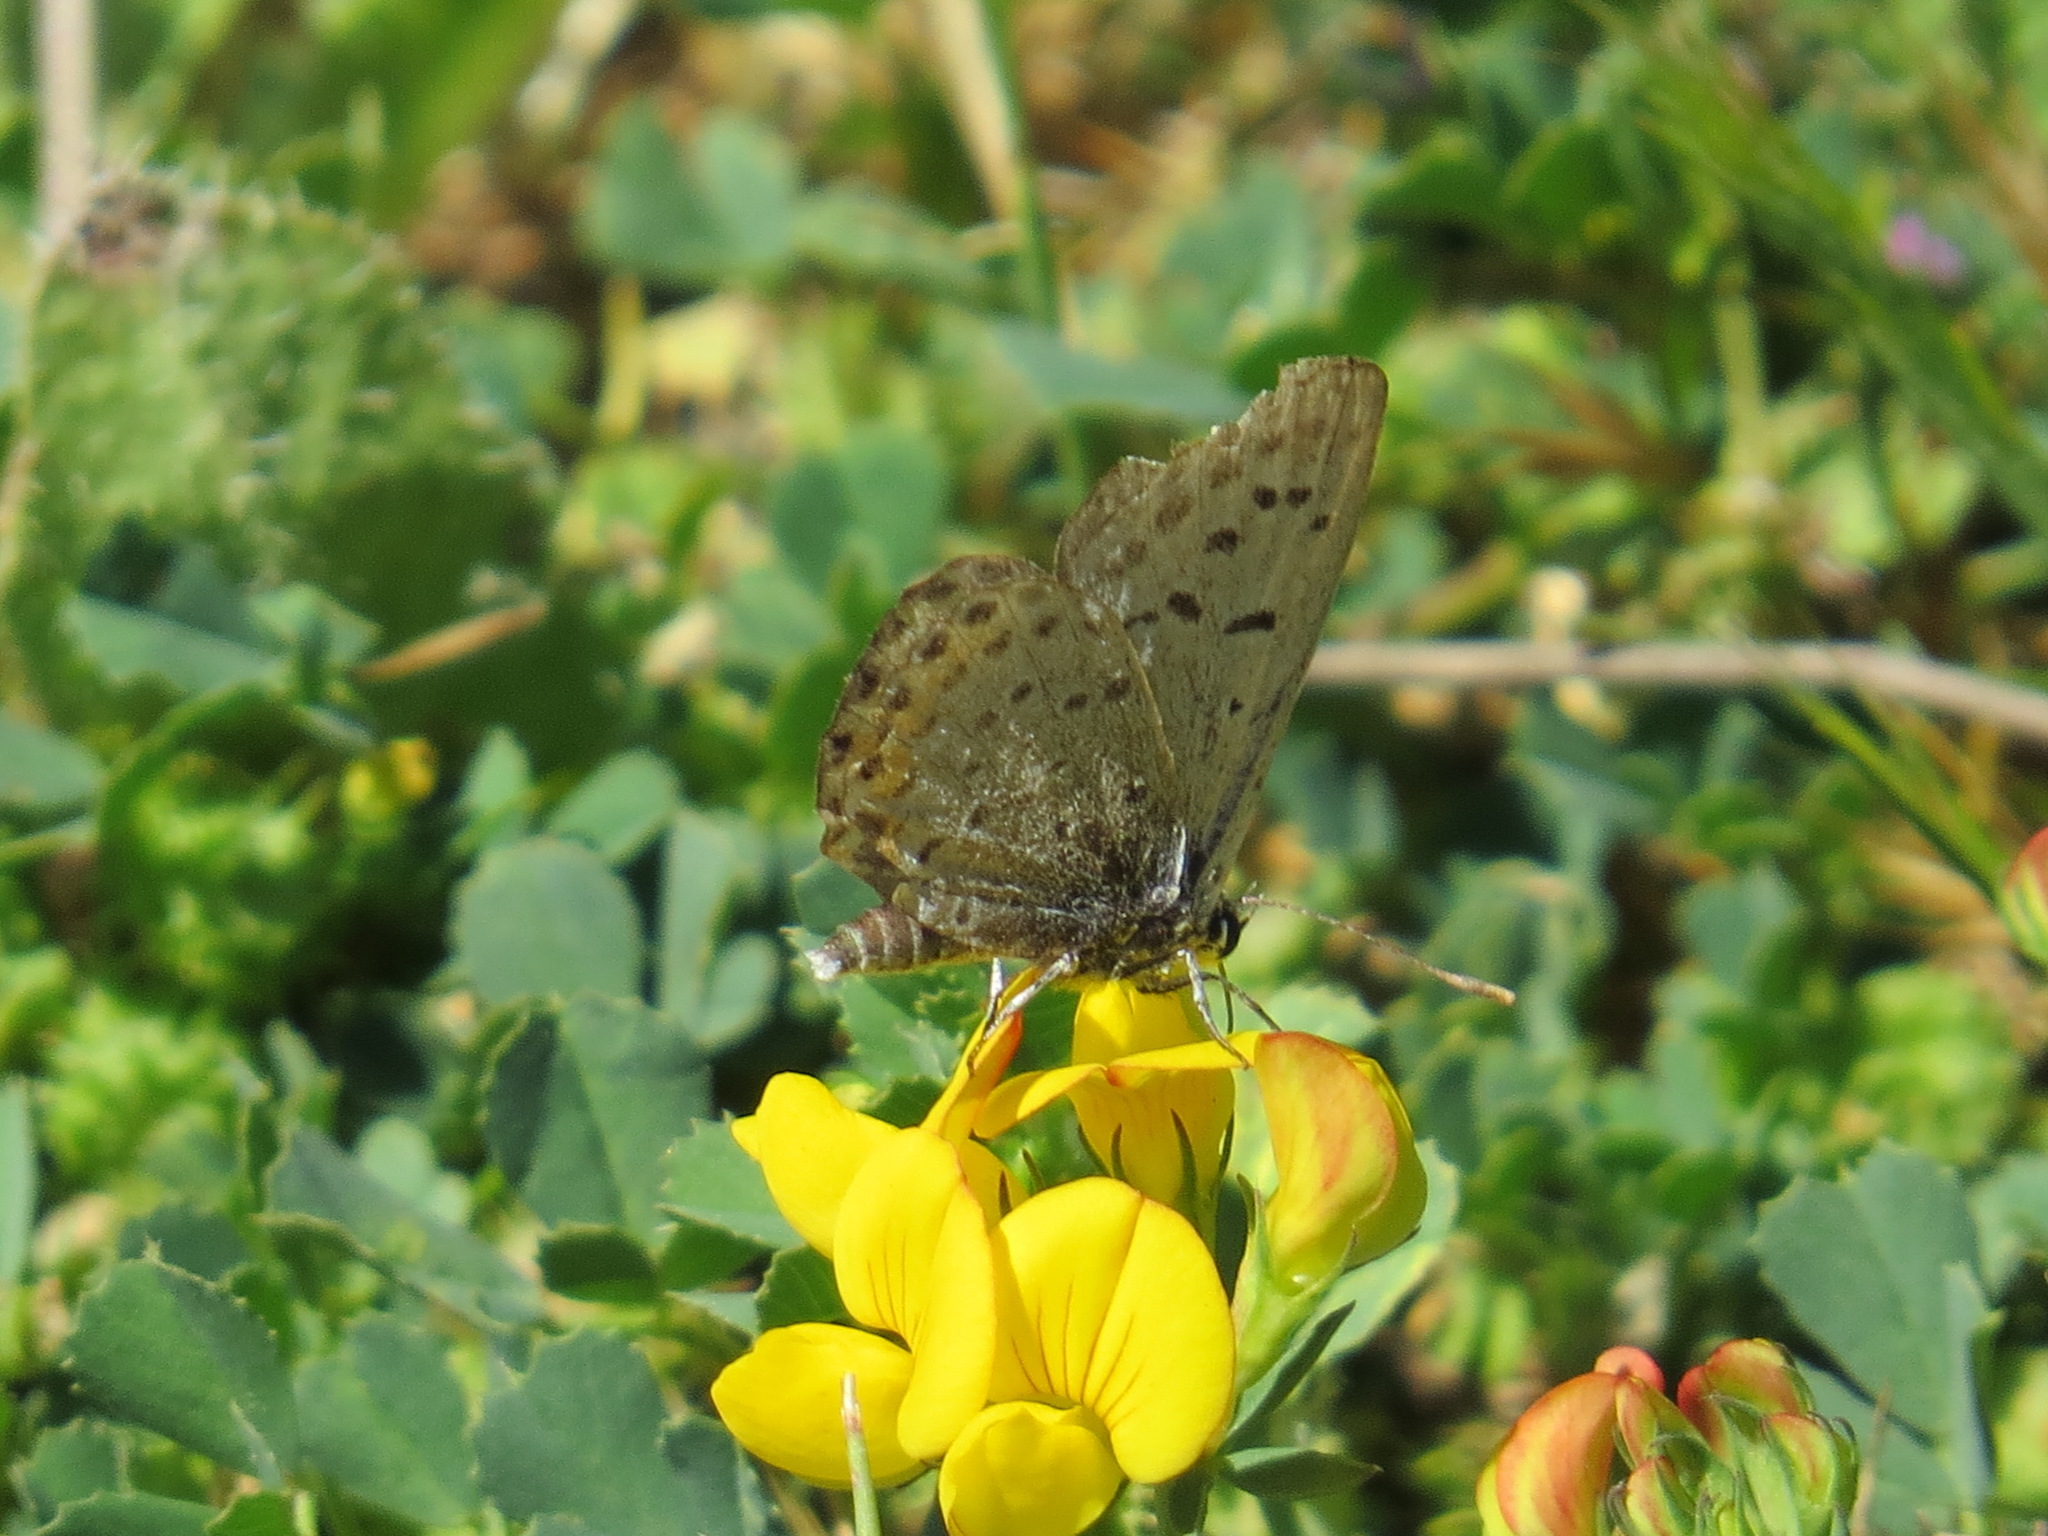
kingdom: Animalia
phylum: Arthropoda
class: Insecta
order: Lepidoptera
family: Lycaenidae
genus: Icaricia
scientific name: Icaricia acmon
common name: Acmon blue
